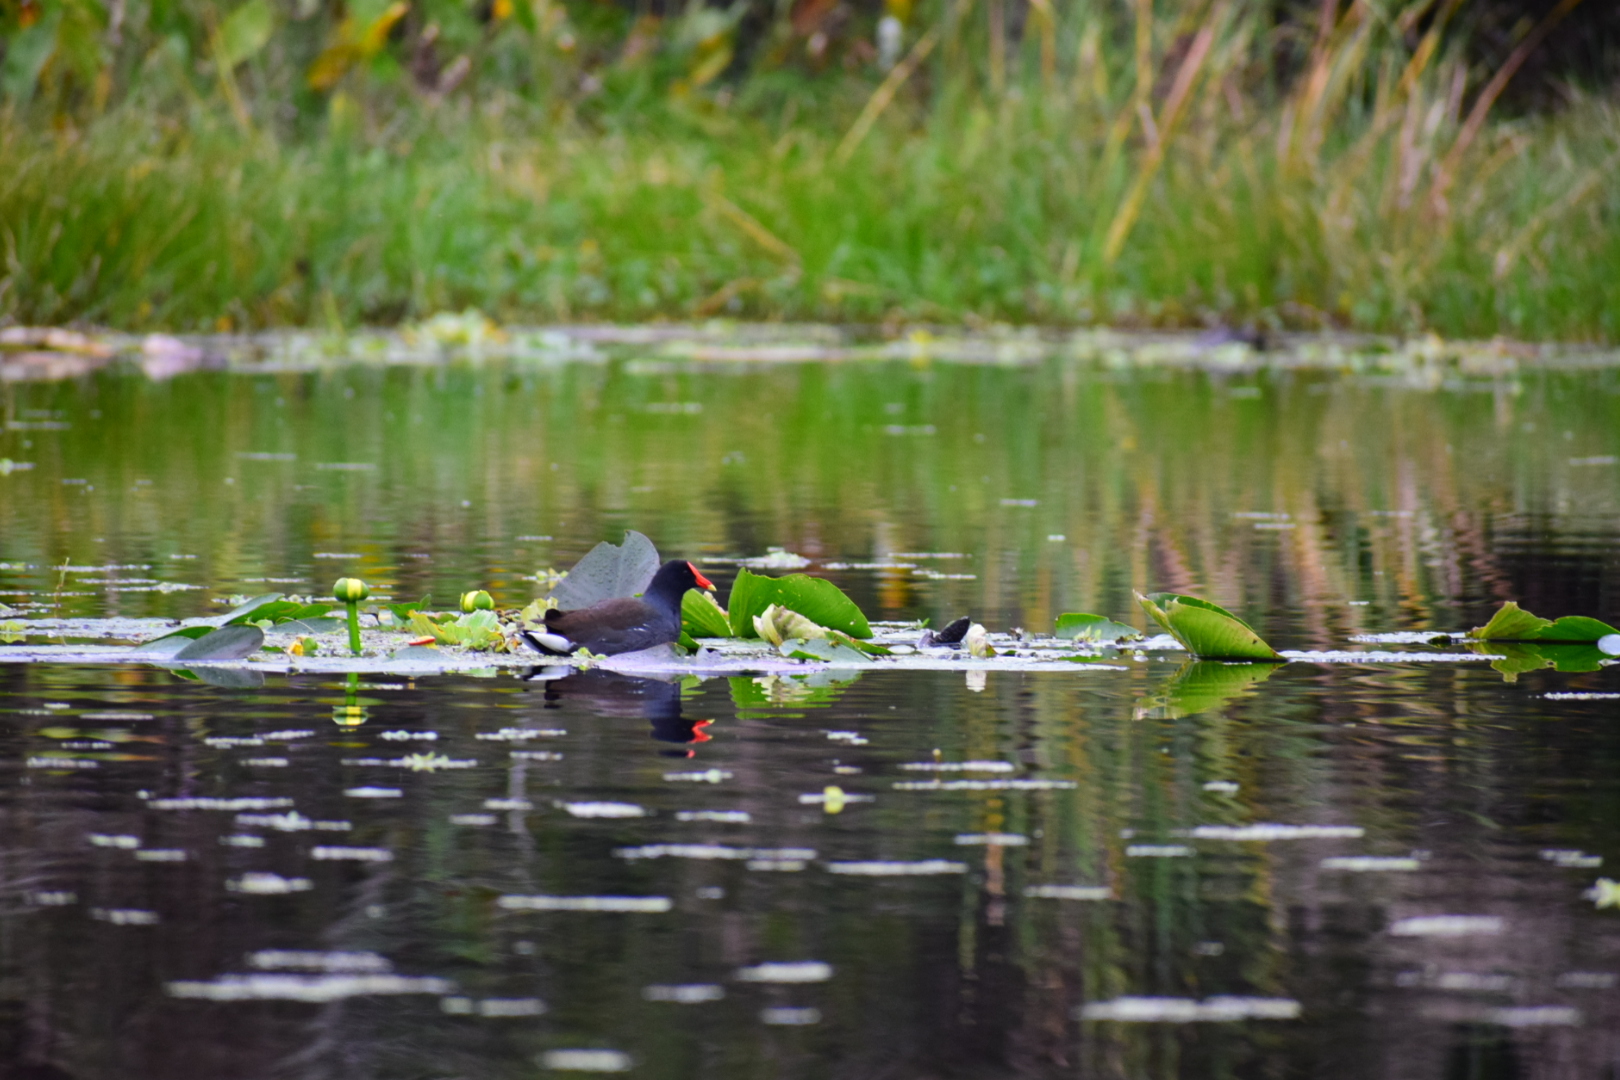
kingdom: Animalia
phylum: Chordata
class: Aves
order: Gruiformes
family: Rallidae
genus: Gallinula
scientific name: Gallinula chloropus
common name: Common moorhen
